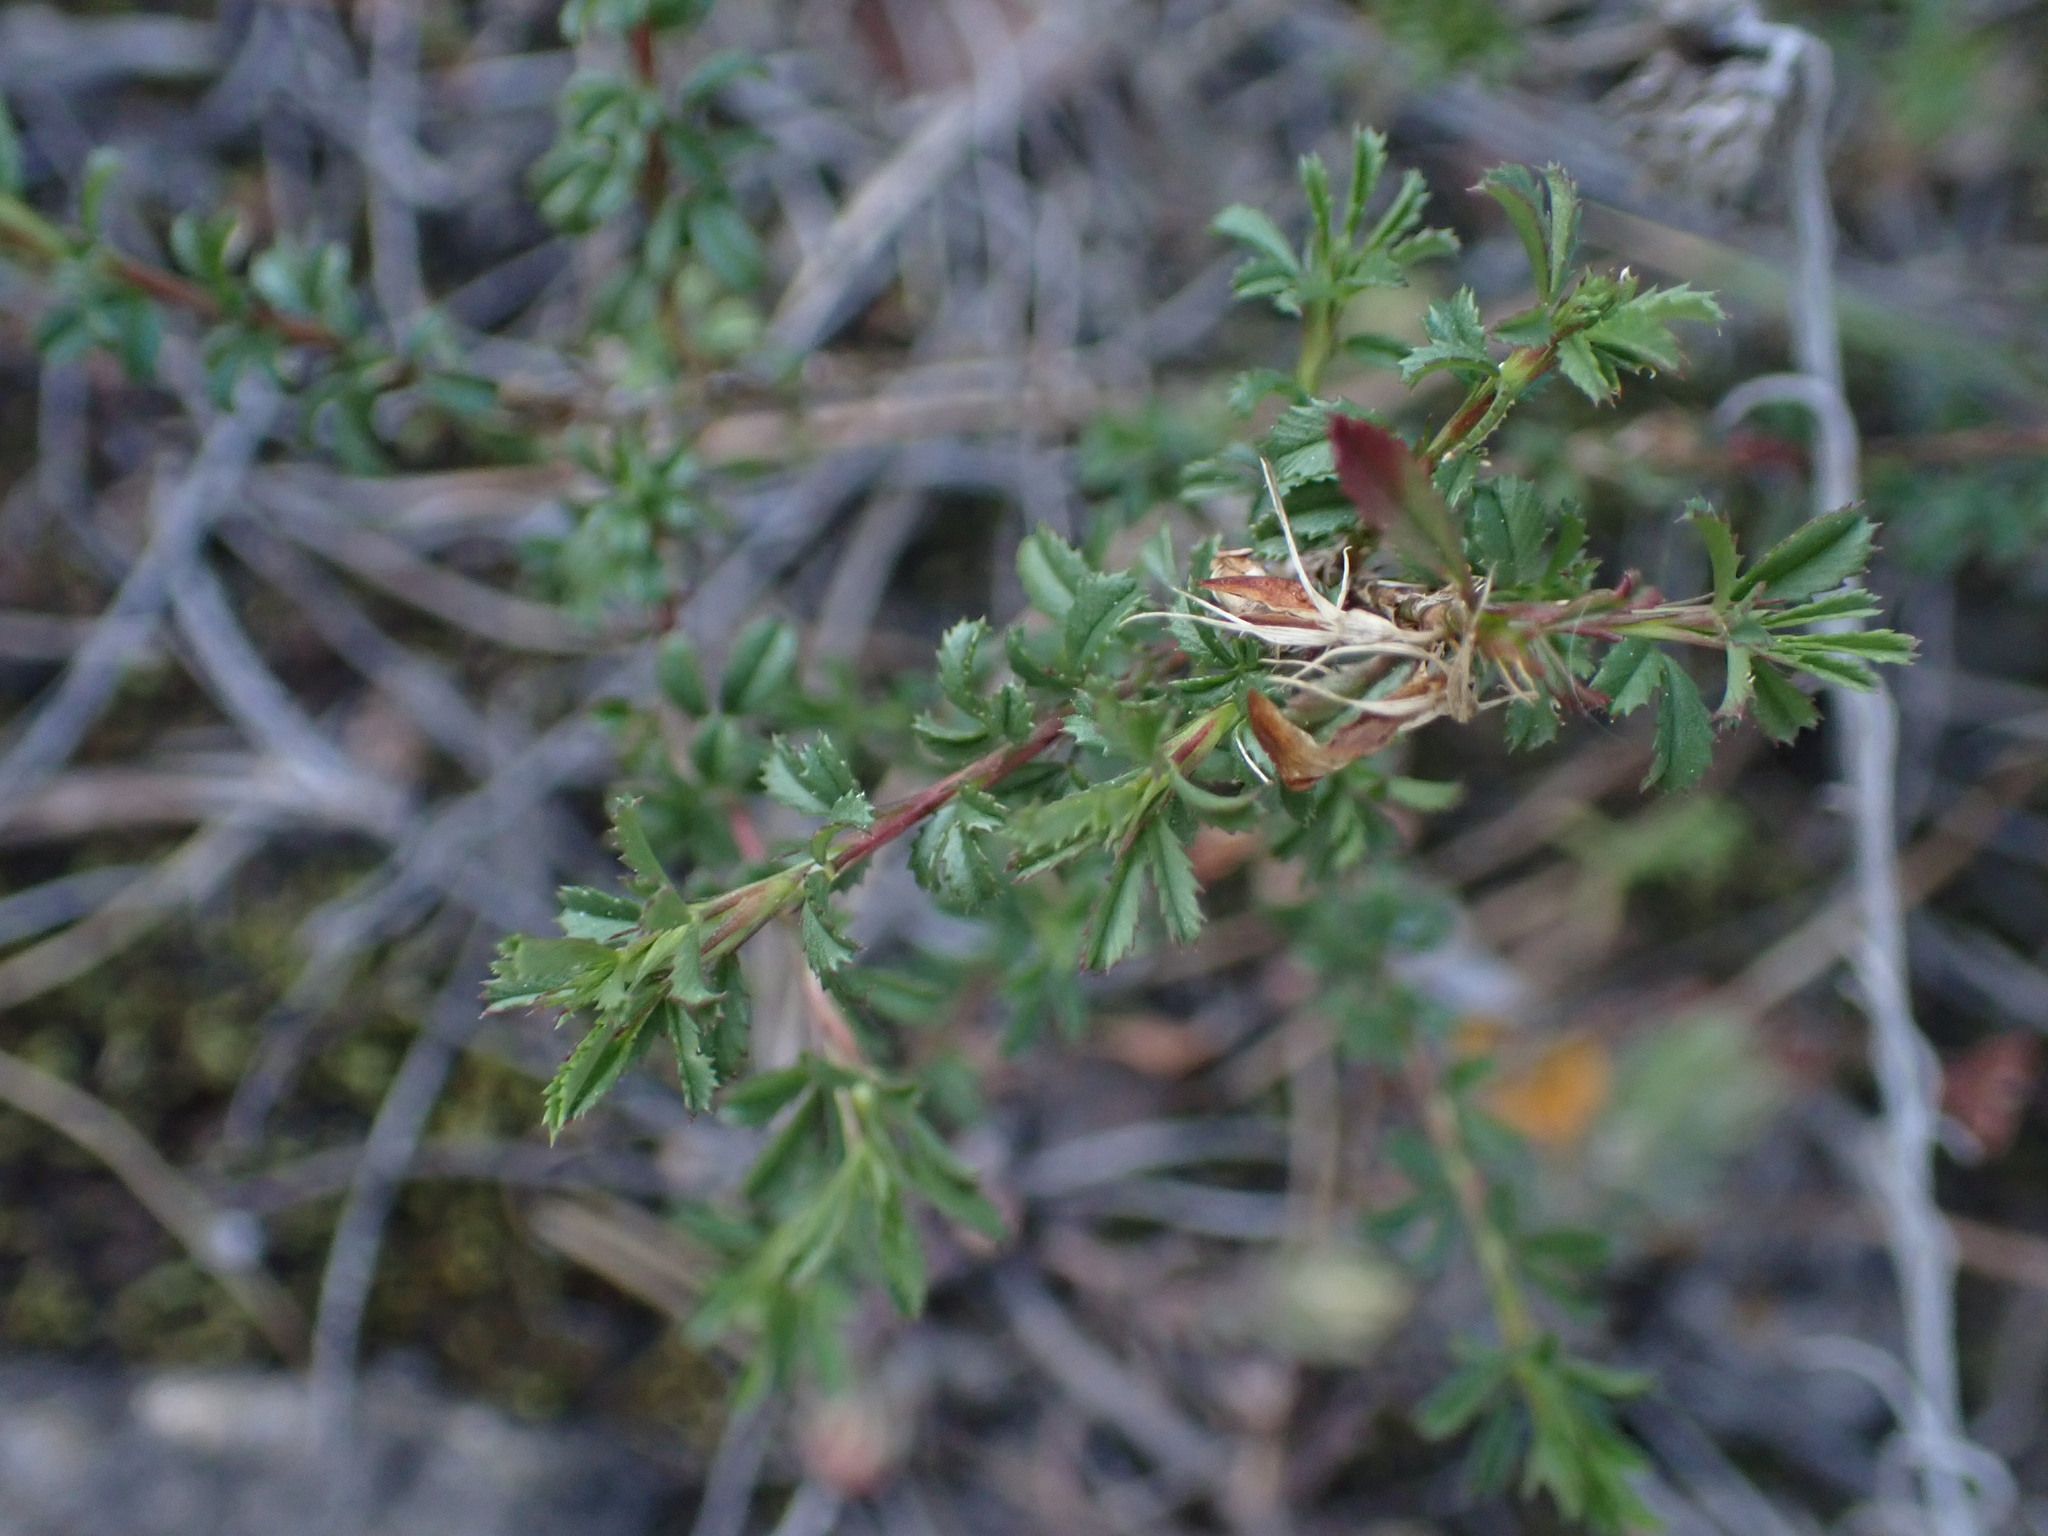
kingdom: Plantae
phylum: Tracheophyta
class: Magnoliopsida
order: Fabales
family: Fabaceae
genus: Ononis
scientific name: Ononis minutissima
